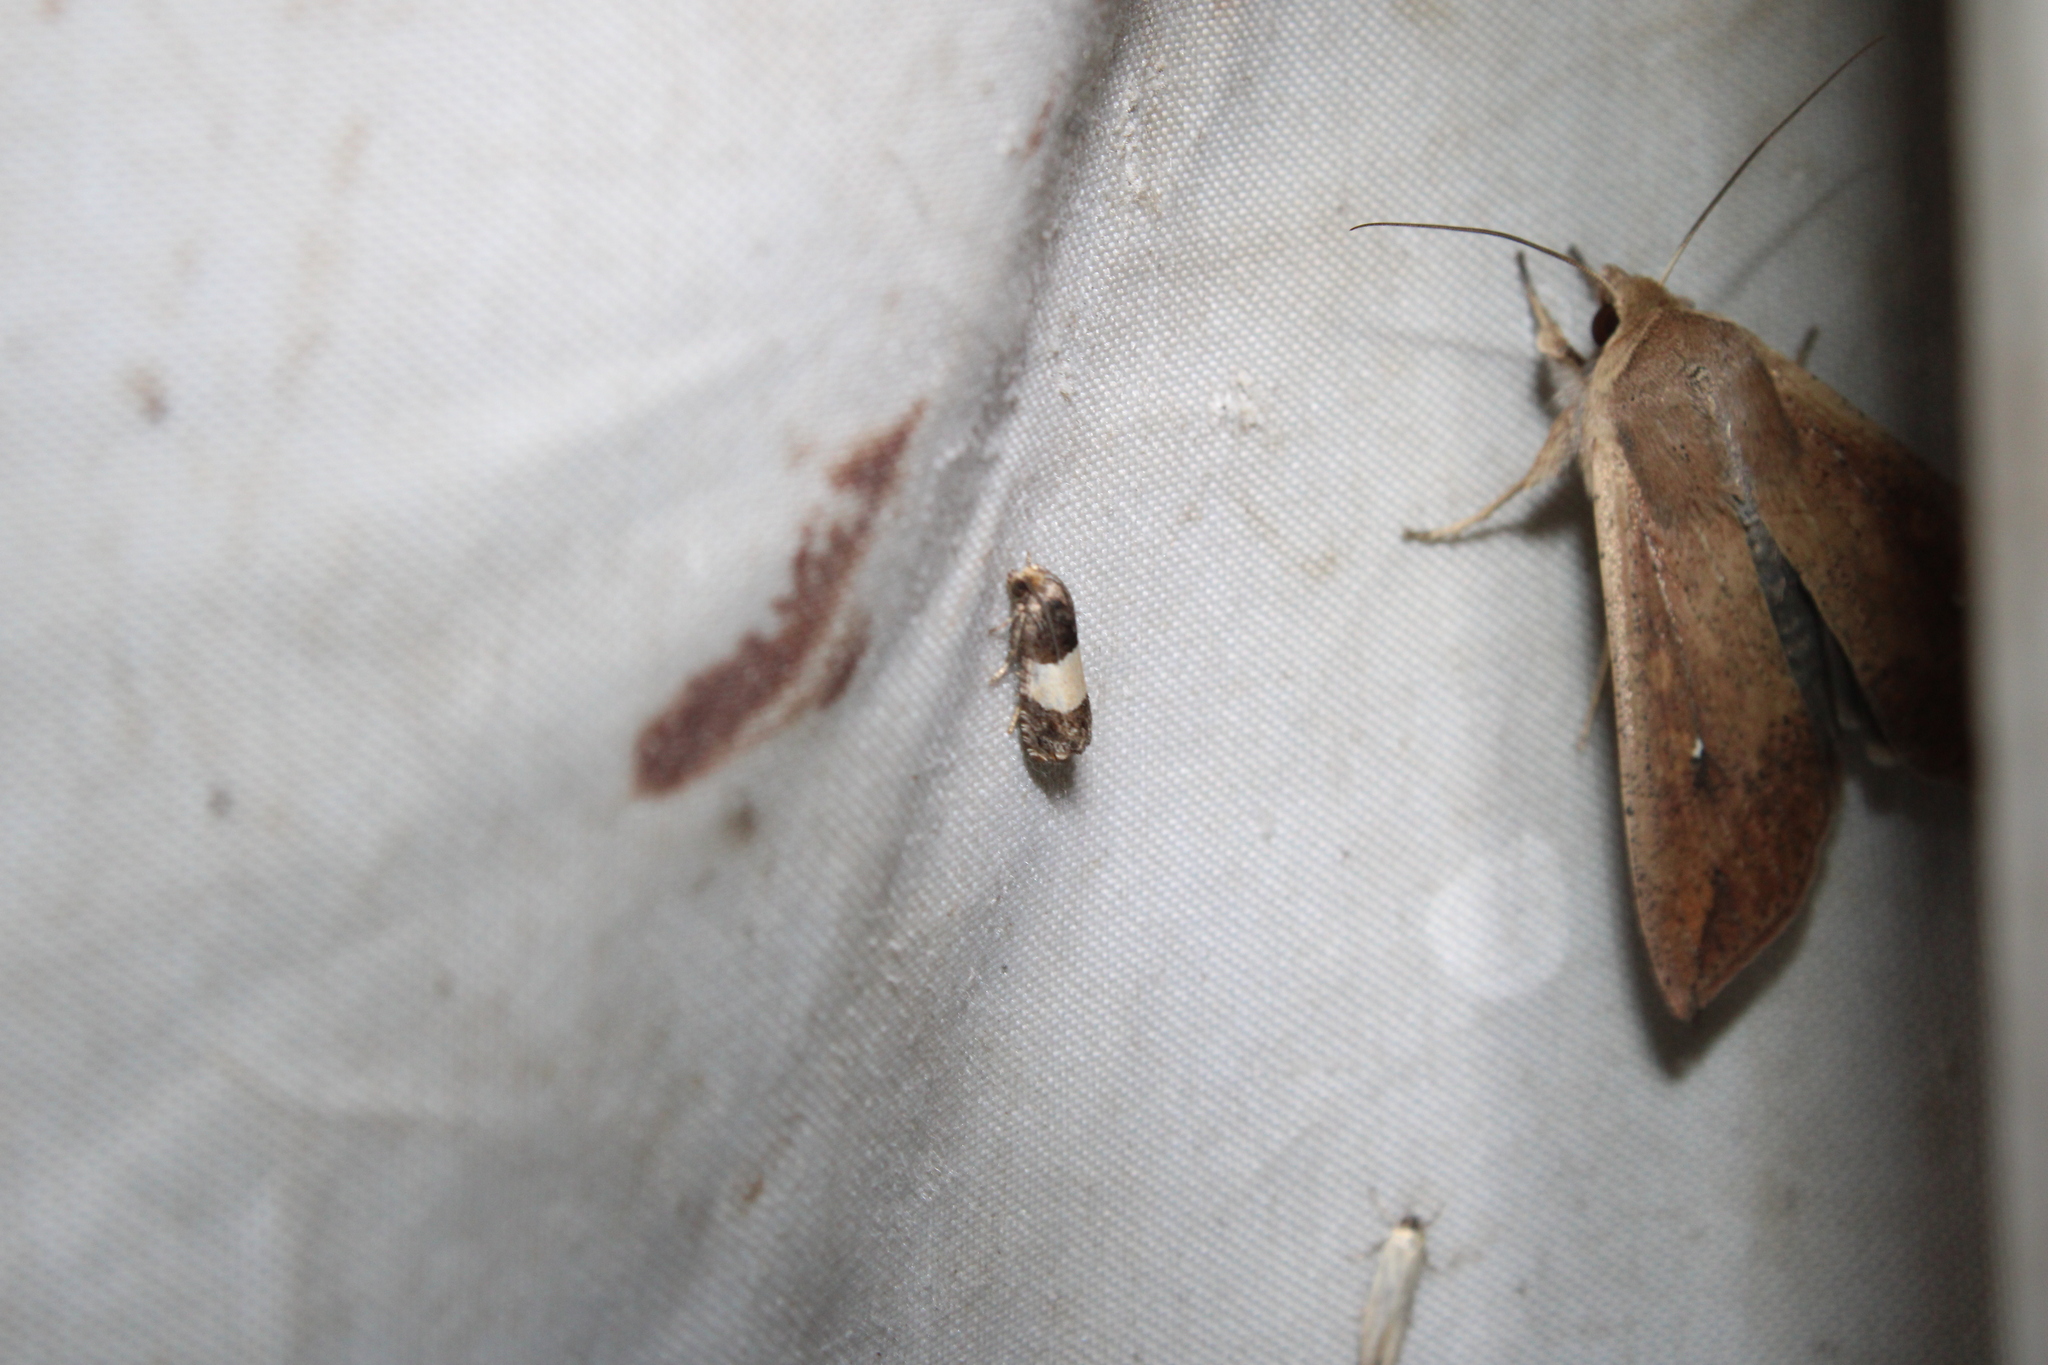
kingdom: Animalia
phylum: Arthropoda
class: Insecta
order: Lepidoptera
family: Tortricidae
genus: Epiblema
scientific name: Epiblema tripartitana
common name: Three-parted epiblema moth
